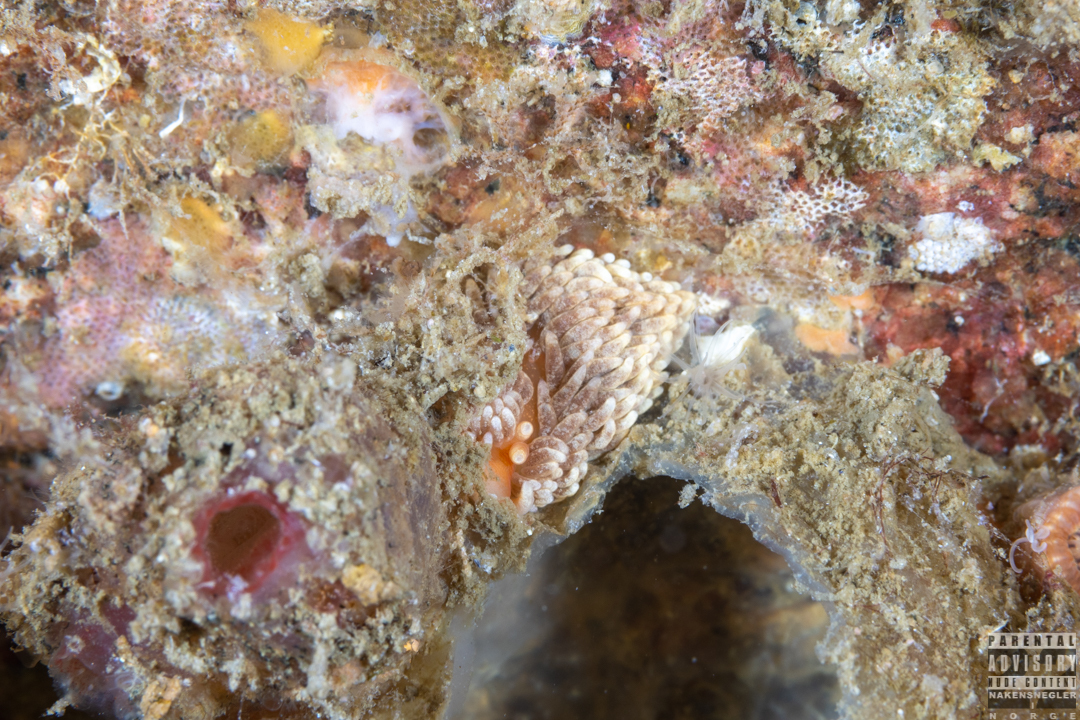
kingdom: Animalia
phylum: Mollusca
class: Gastropoda
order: Nudibranchia
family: Aeolidiidae
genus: Aeolidiella
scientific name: Aeolidiella glauca
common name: Orange-brown aeolid
